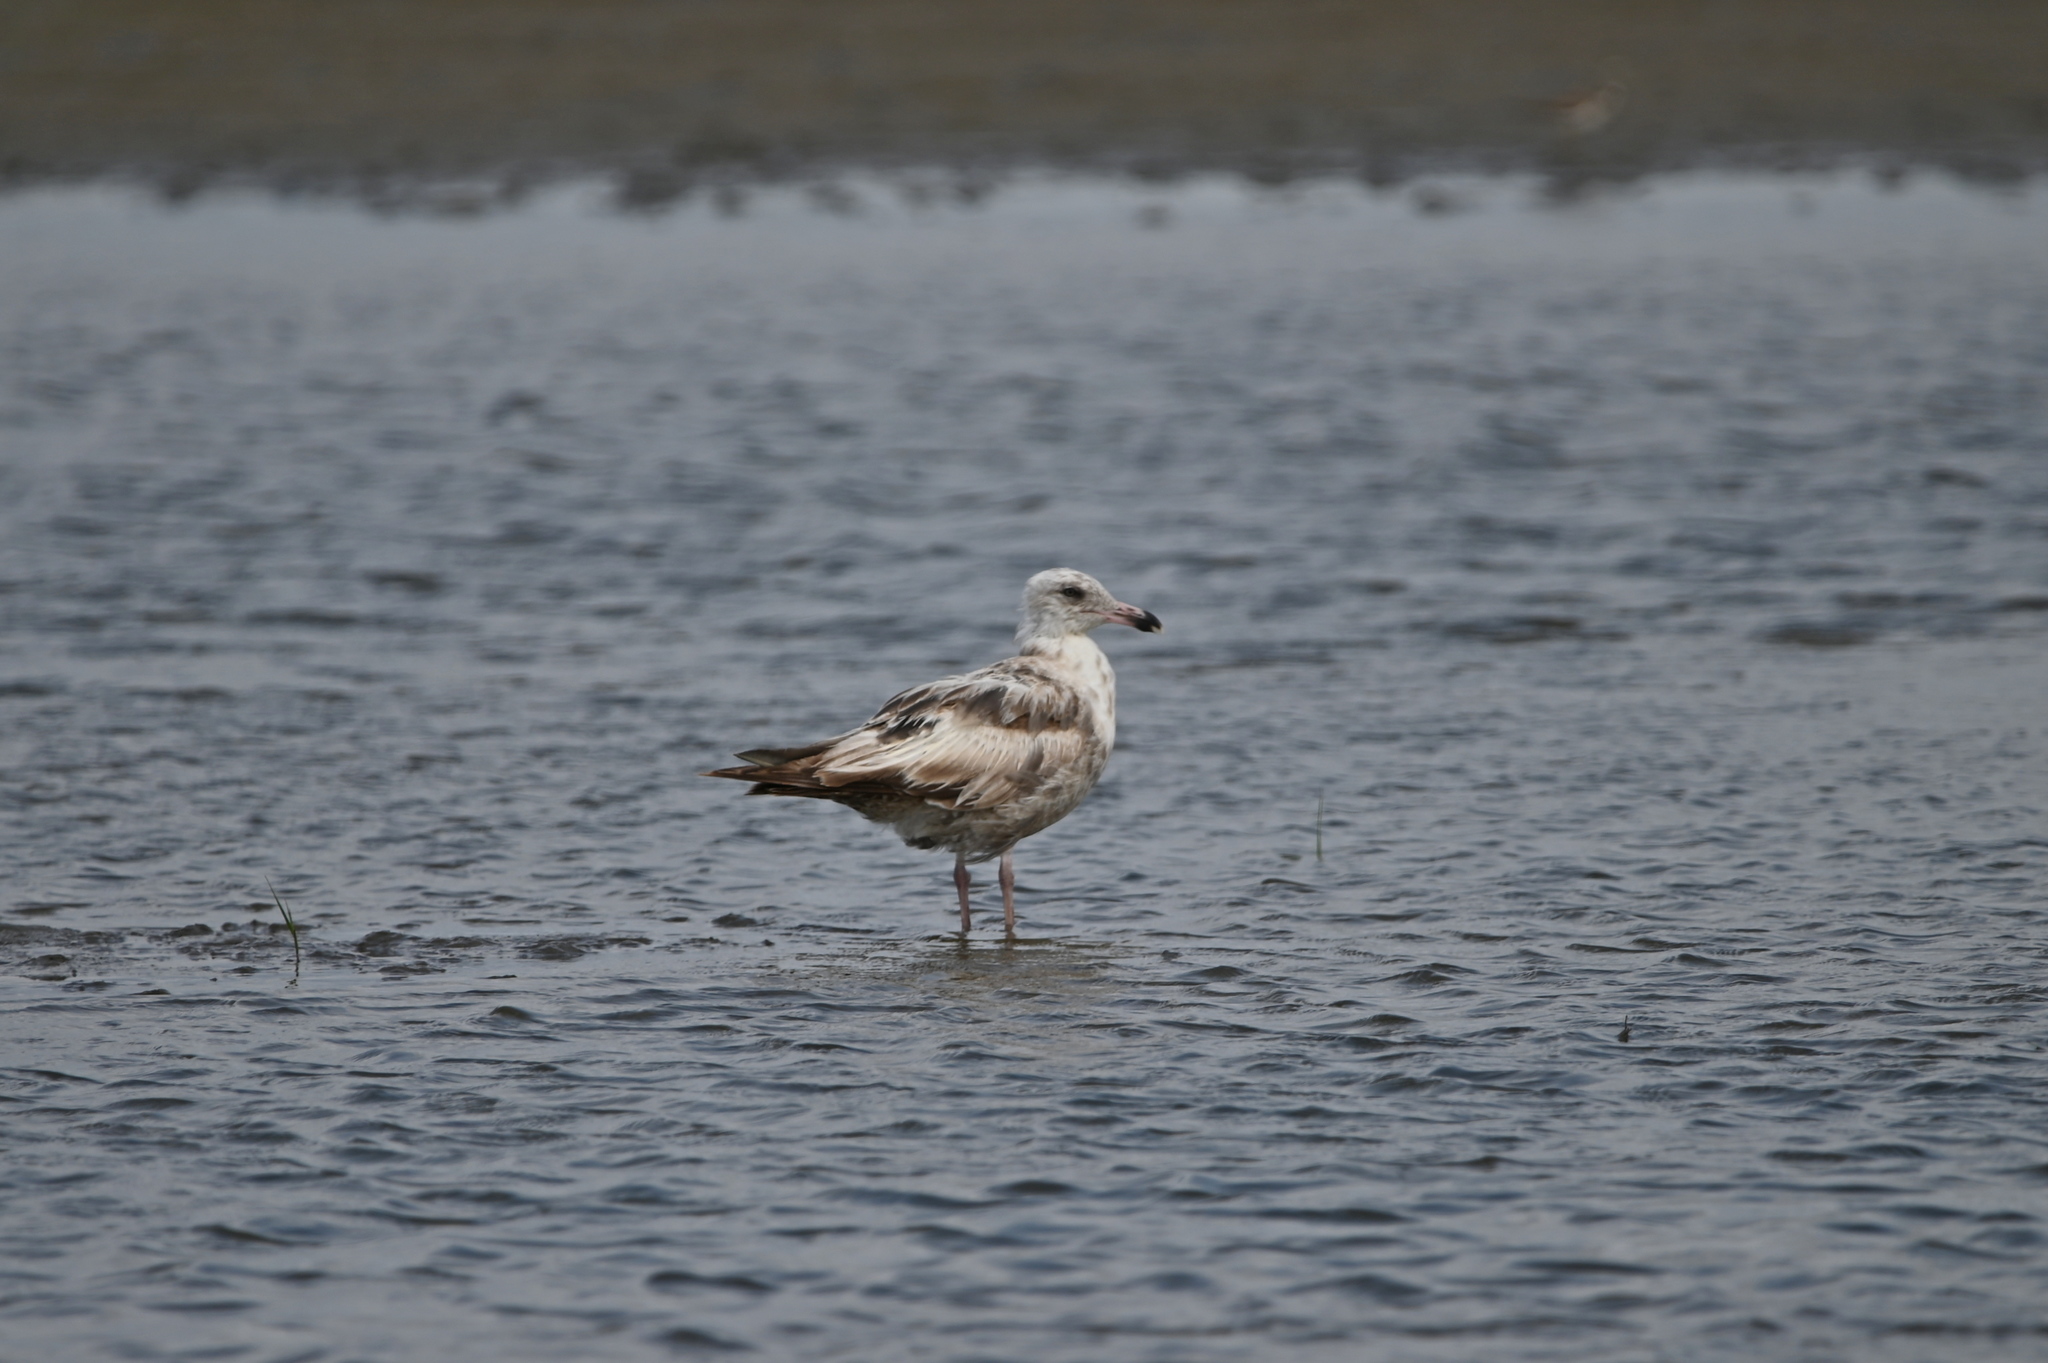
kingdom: Animalia
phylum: Chordata
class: Aves
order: Charadriiformes
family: Laridae
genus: Larus
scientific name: Larus argentatus
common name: Herring gull
